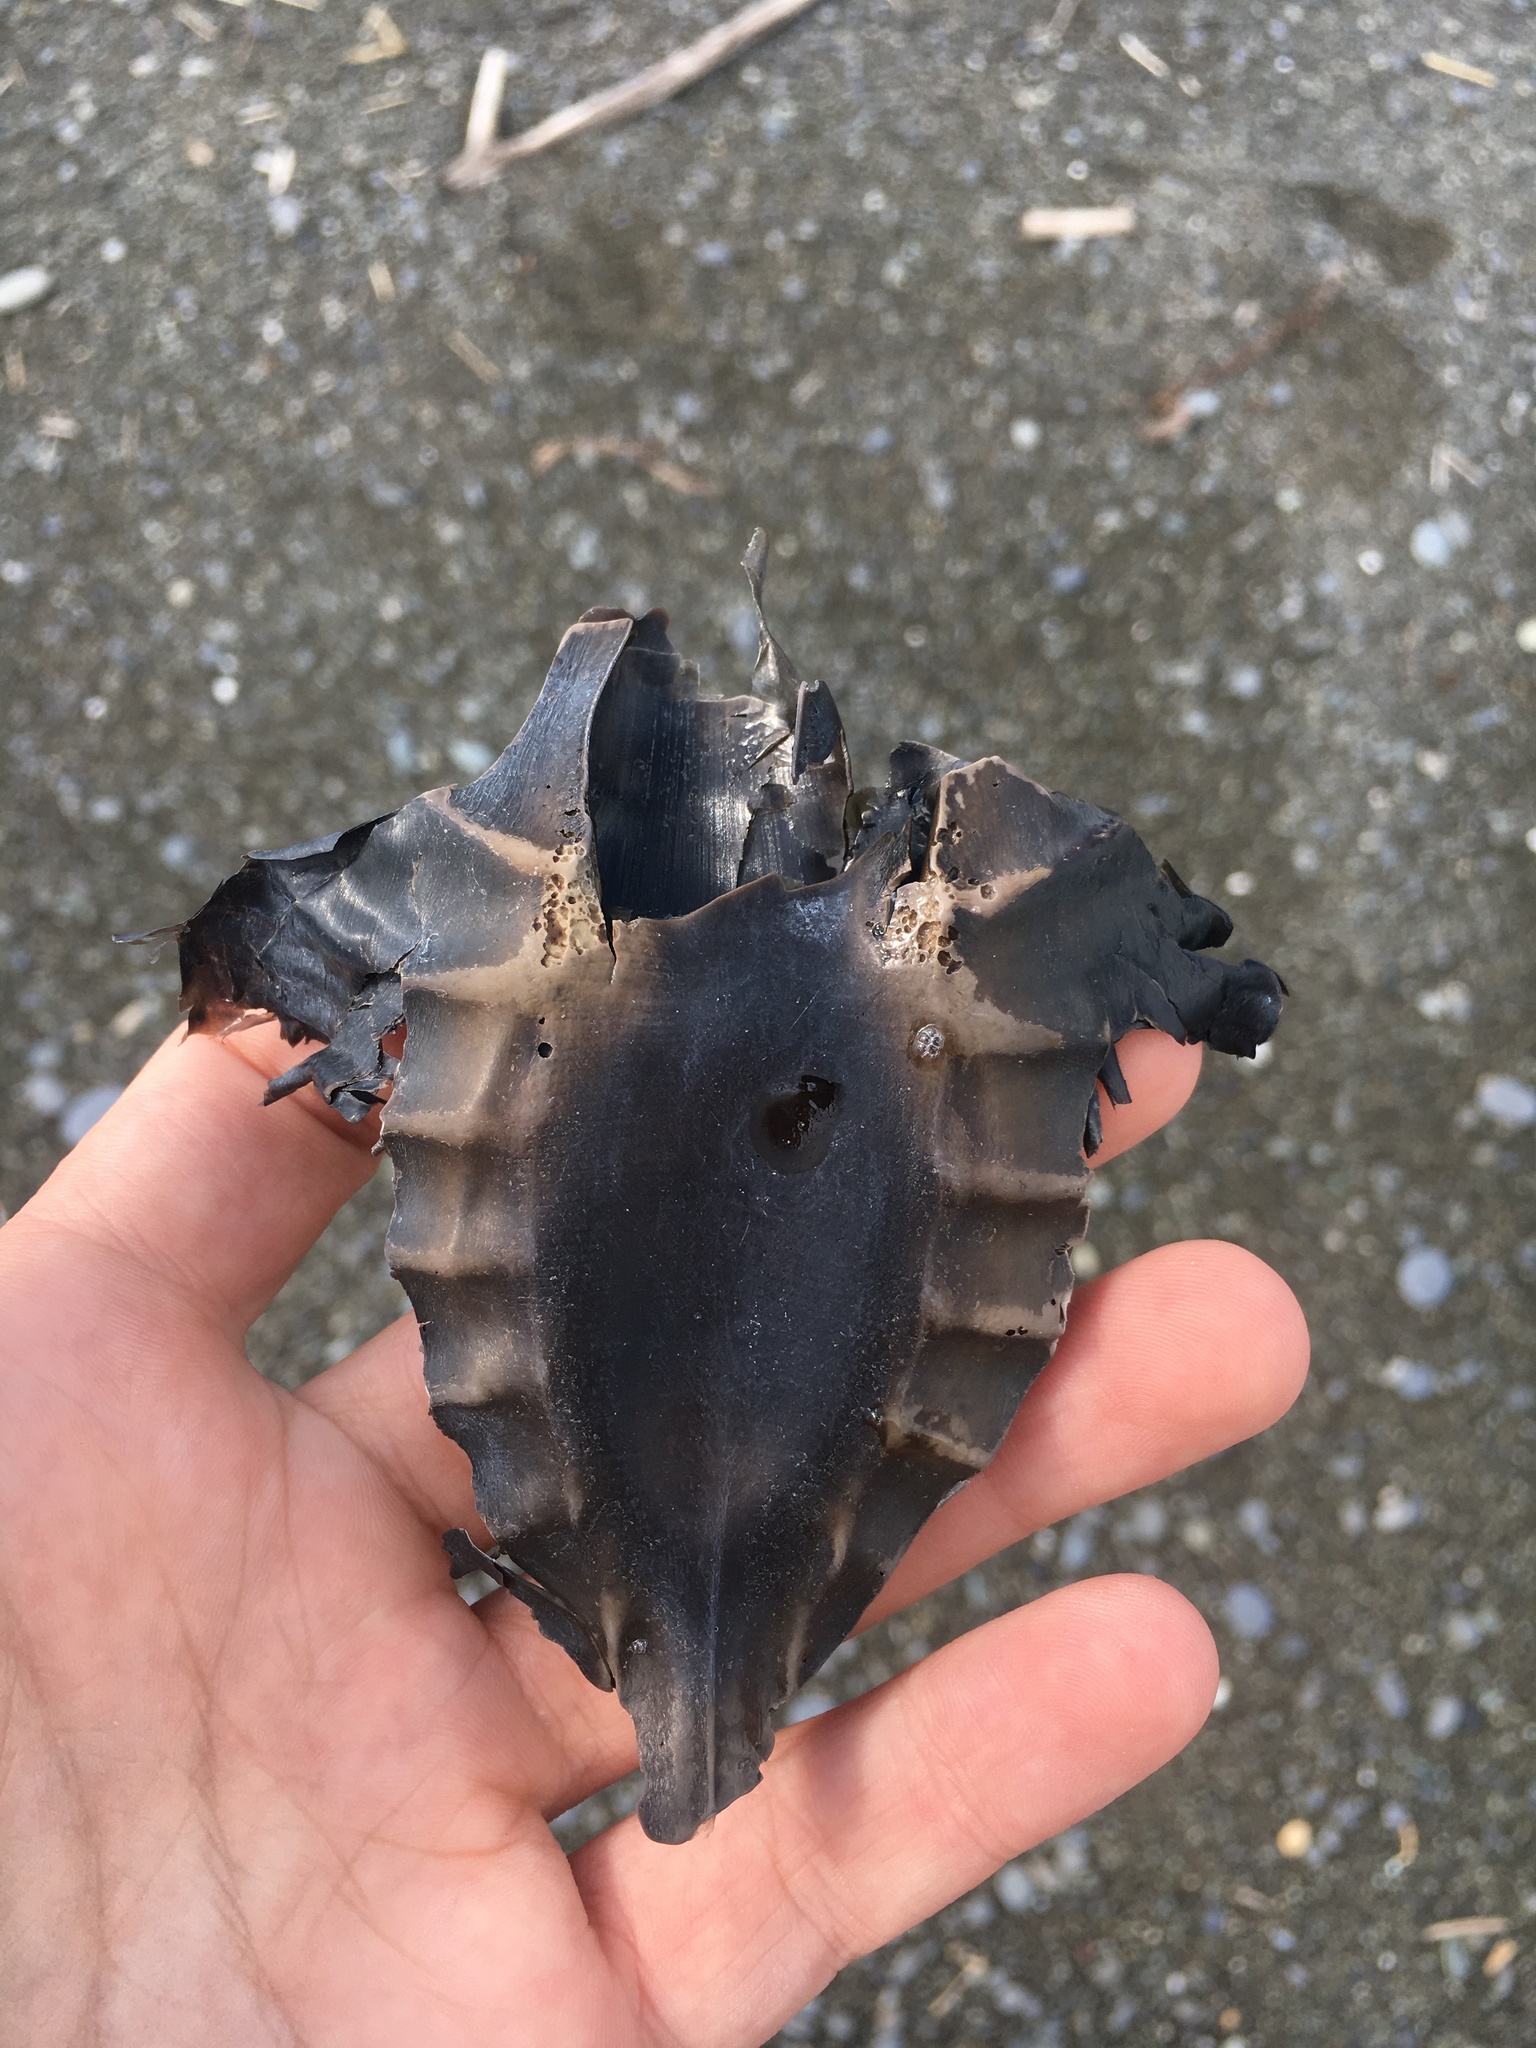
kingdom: Animalia
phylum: Chordata
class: Holocephali
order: Chimaeriformes
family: Callorhinchidae
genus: Callorhinchus
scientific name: Callorhinchus milii
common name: Elephant fish
